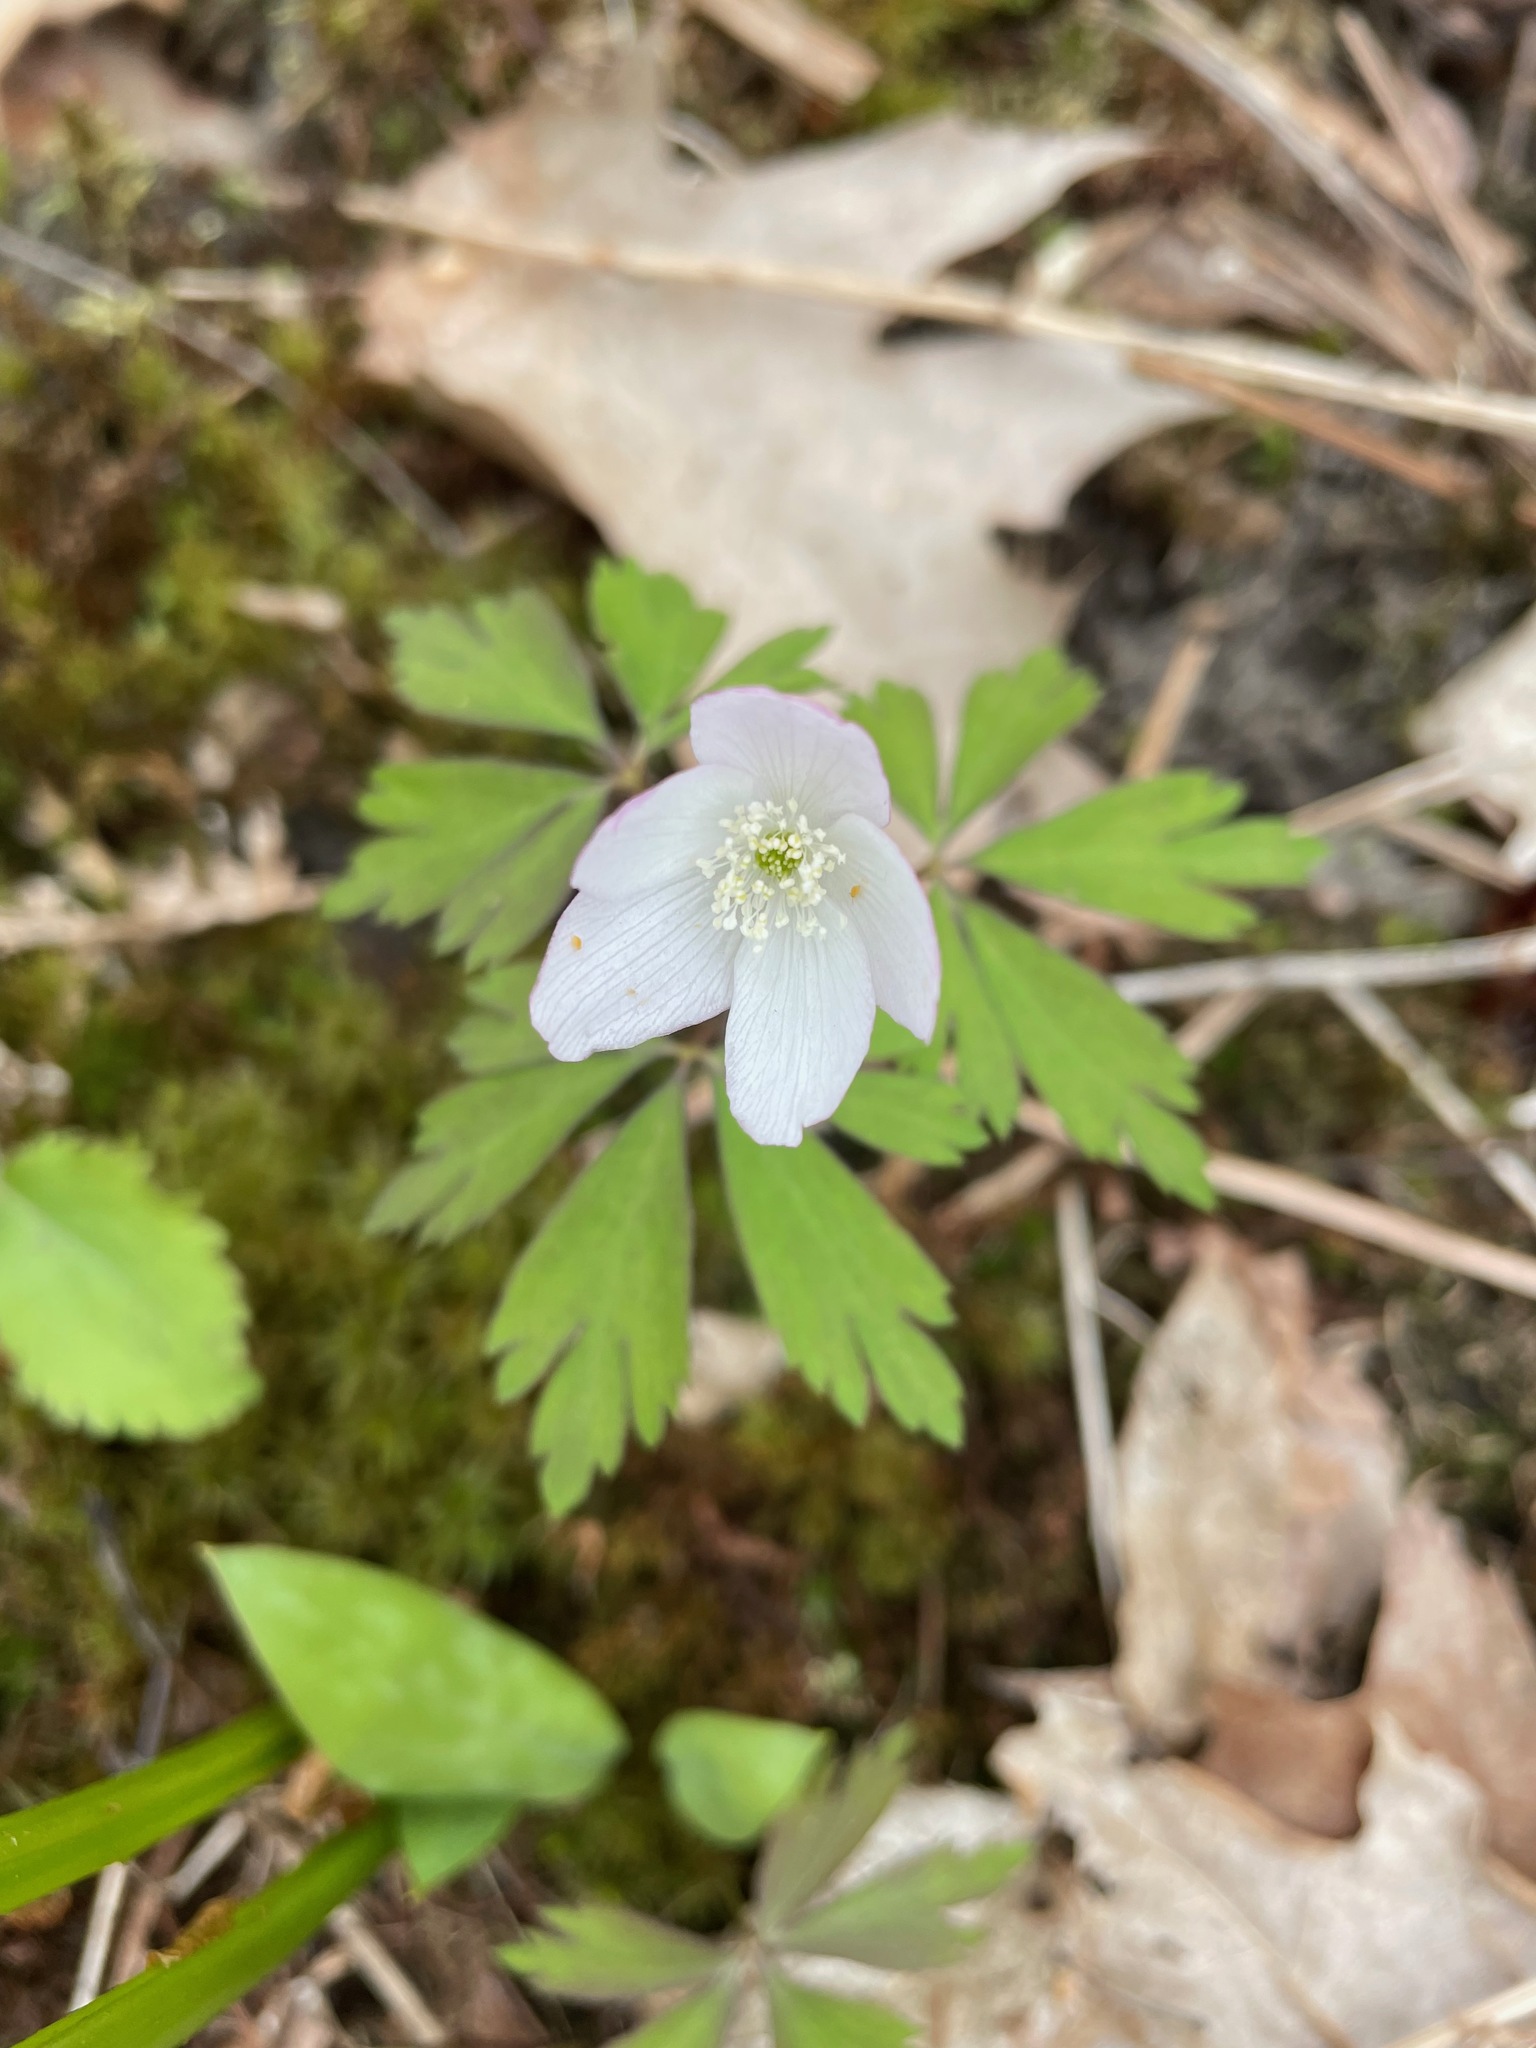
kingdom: Plantae
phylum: Tracheophyta
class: Magnoliopsida
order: Ranunculales
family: Ranunculaceae
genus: Anemone
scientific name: Anemone quinquefolia
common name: Wood anemone
